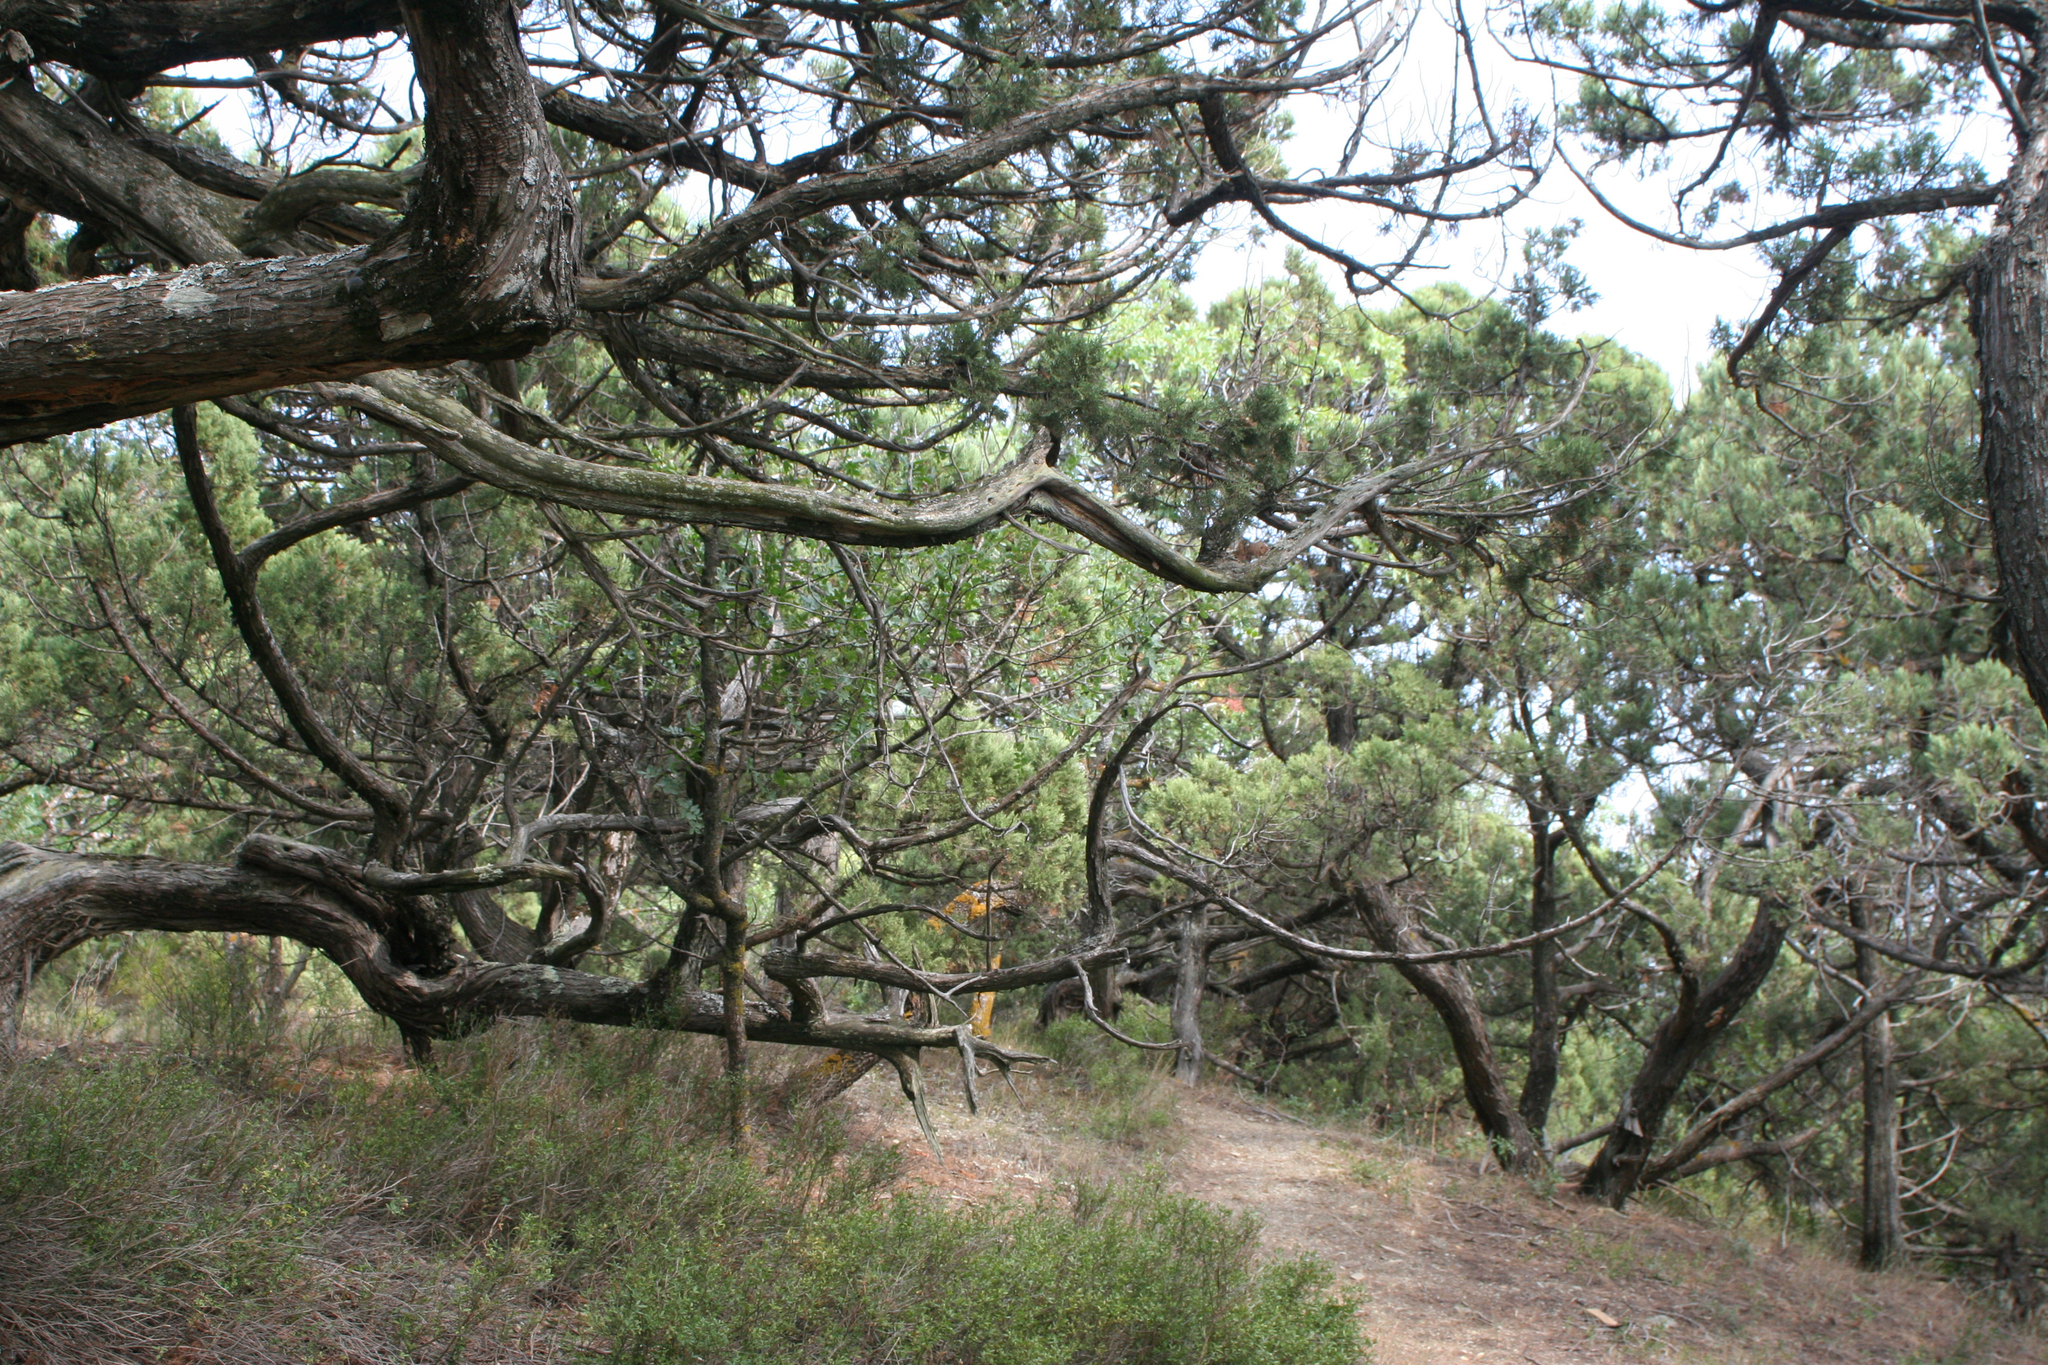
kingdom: Plantae
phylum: Tracheophyta
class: Pinopsida
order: Pinales
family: Cupressaceae
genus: Juniperus
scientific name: Juniperus excelsa
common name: Crimean juniper
